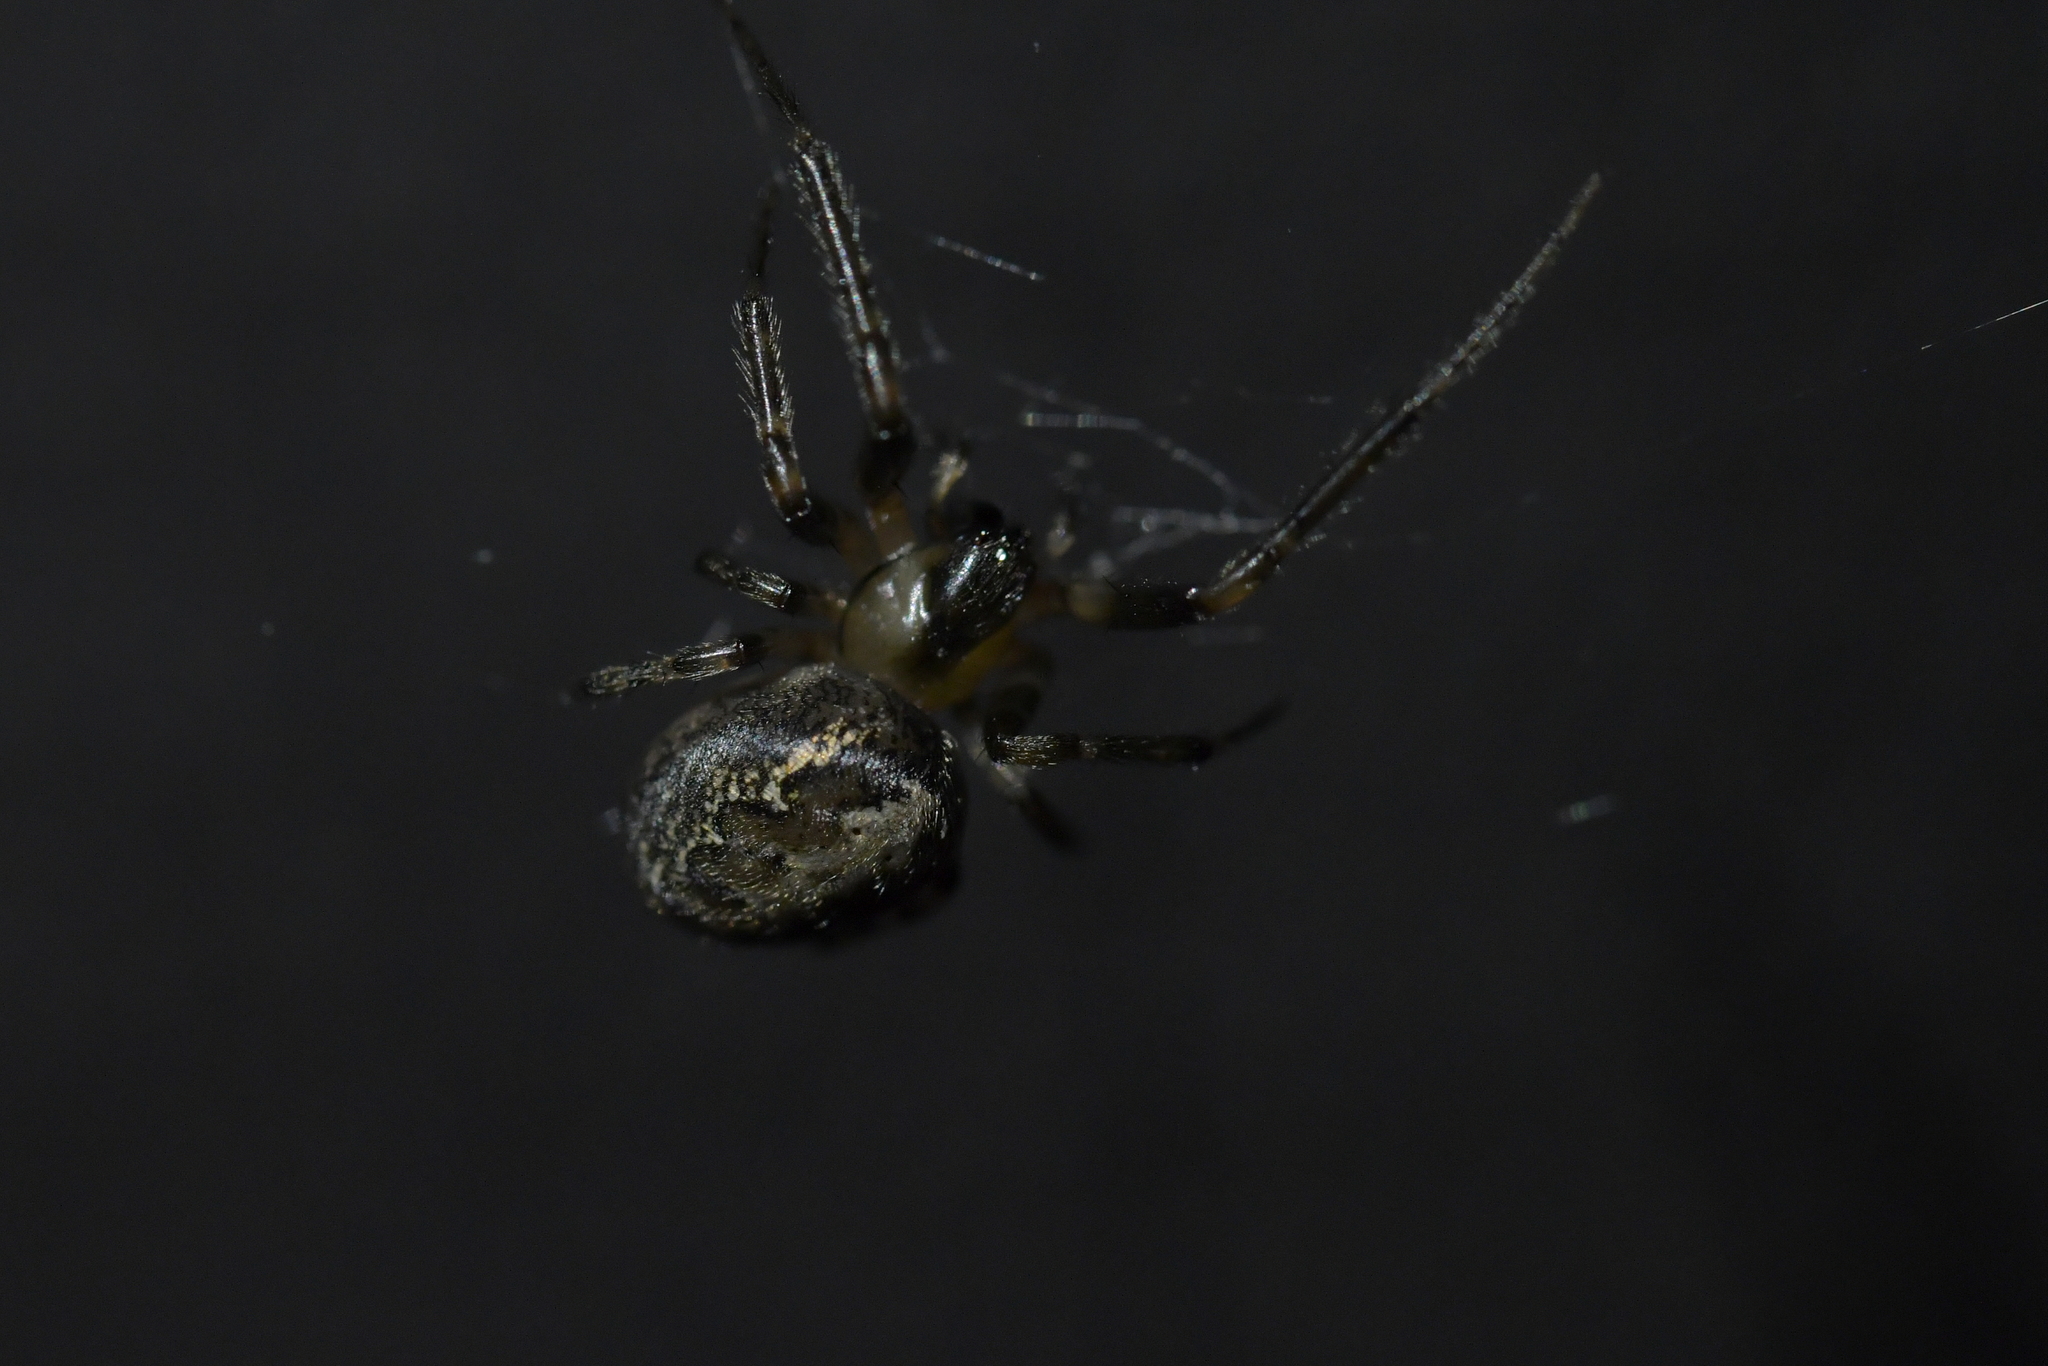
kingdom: Animalia
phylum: Arthropoda
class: Arachnida
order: Araneae
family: Araneidae
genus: Zygiella
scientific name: Zygiella x-notata
